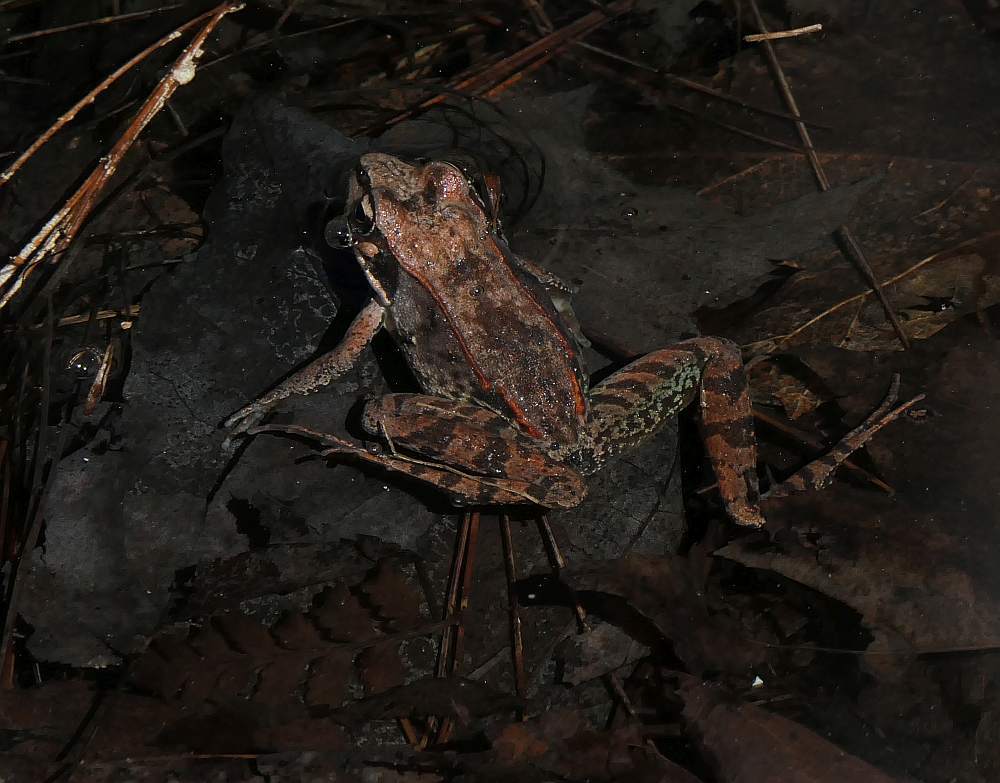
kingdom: Animalia
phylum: Chordata
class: Amphibia
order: Anura
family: Ranidae
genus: Lithobates
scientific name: Lithobates sylvaticus
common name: Wood frog
